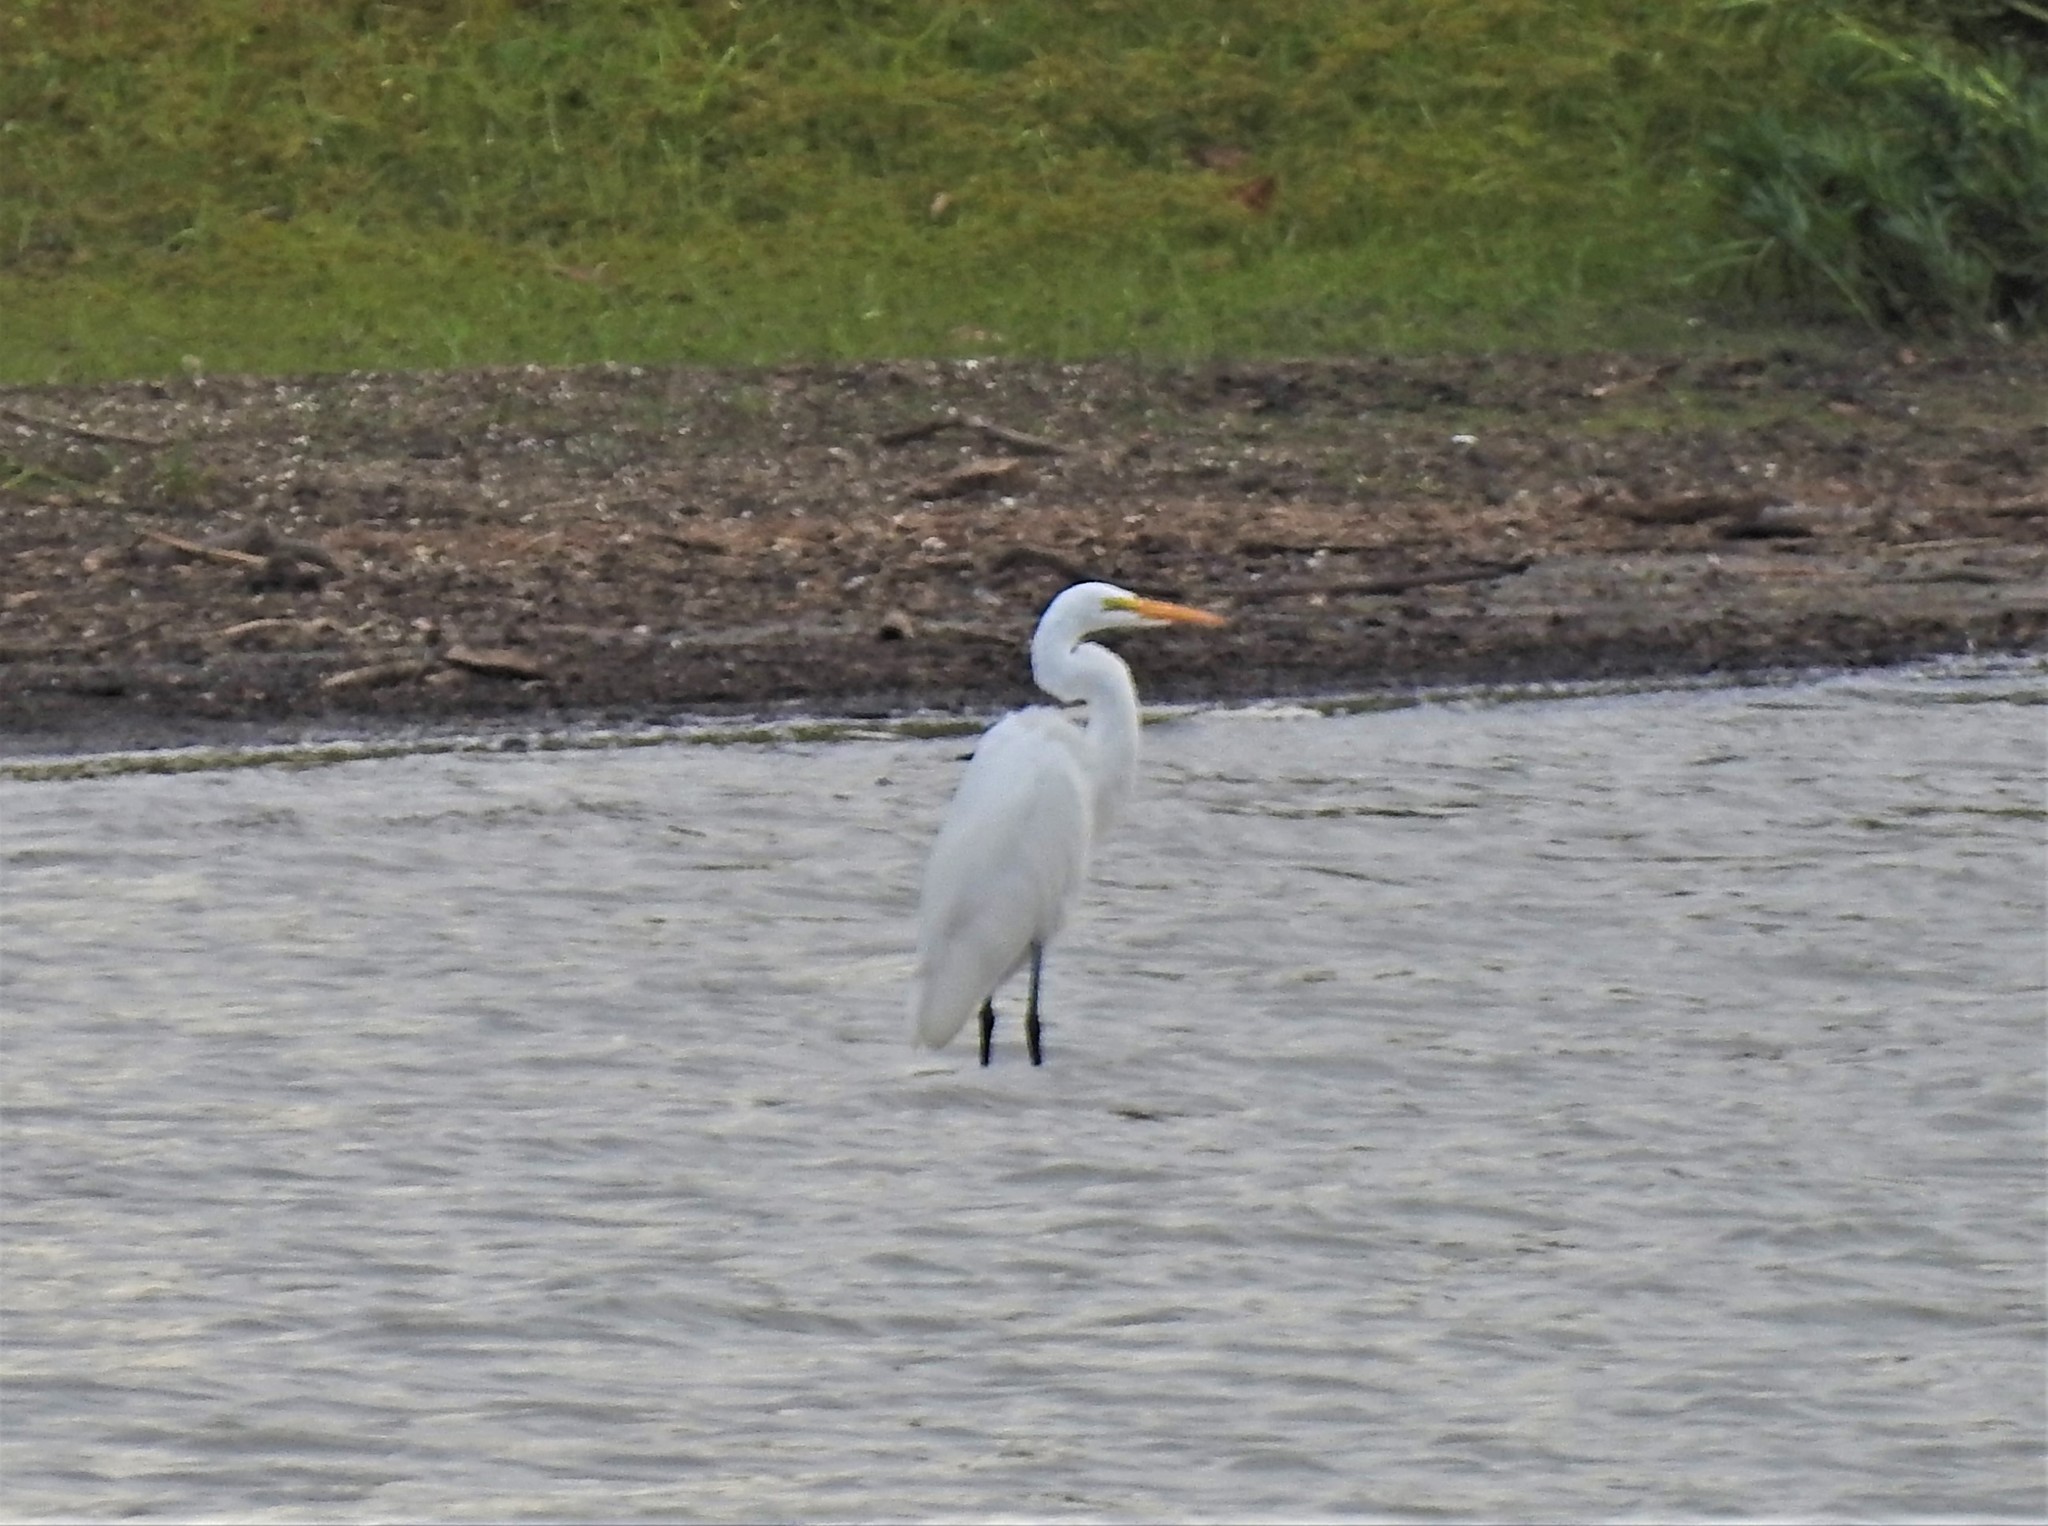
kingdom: Animalia
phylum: Chordata
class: Aves
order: Pelecaniformes
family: Ardeidae
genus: Ardea
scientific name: Ardea alba
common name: Great egret
